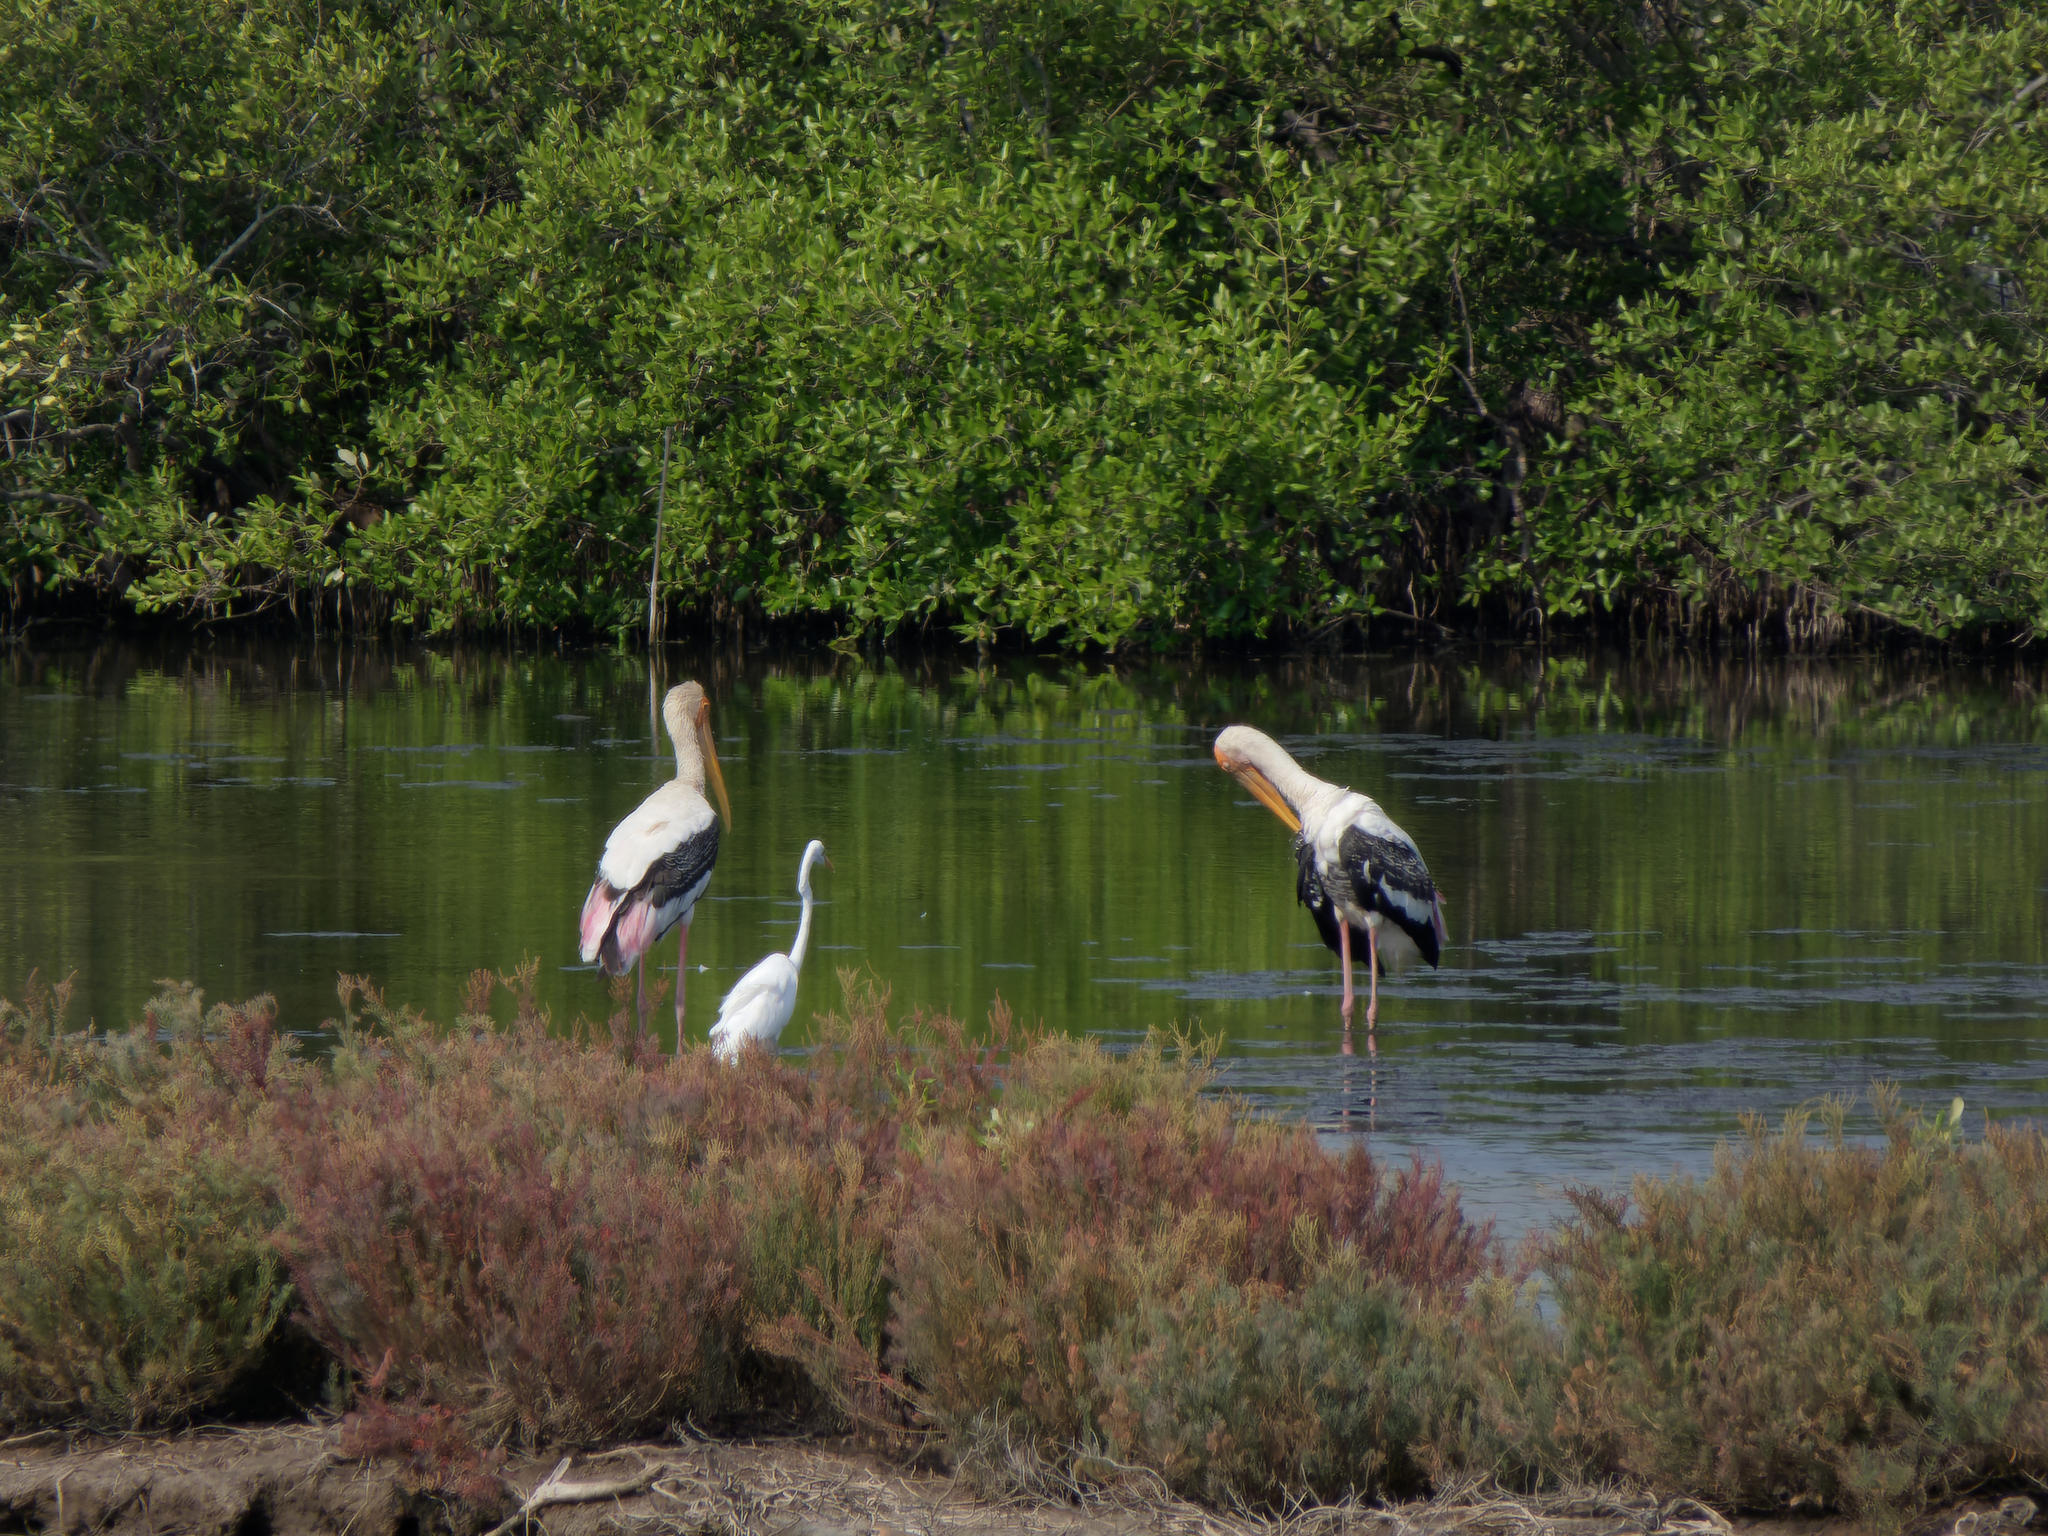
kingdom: Animalia
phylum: Chordata
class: Aves
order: Ciconiiformes
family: Ciconiidae
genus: Mycteria
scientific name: Mycteria leucocephala
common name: Painted stork
